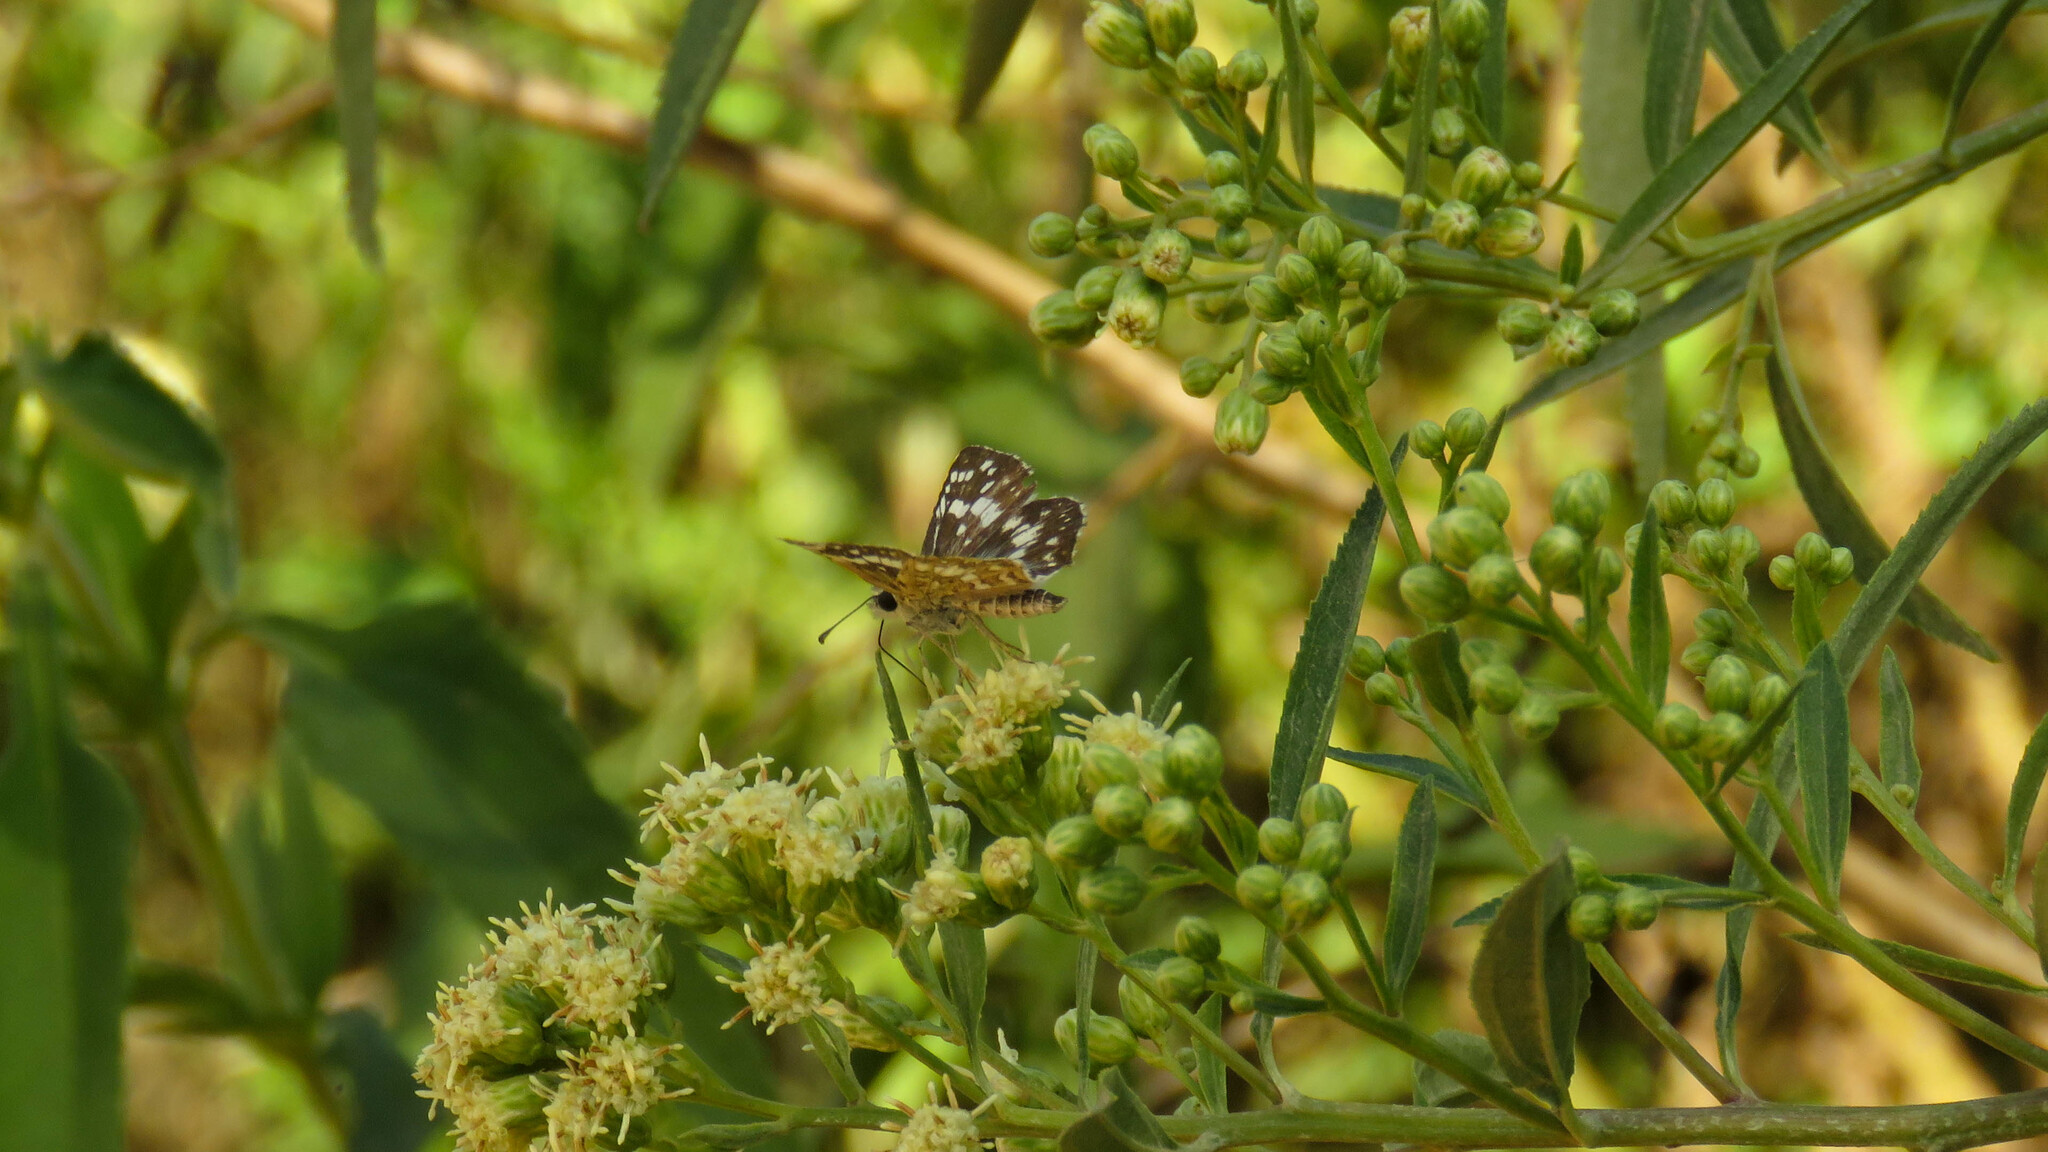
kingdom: Animalia
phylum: Arthropoda
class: Insecta
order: Lepidoptera
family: Hesperiidae
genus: Burnsius
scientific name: Burnsius orcynoides
